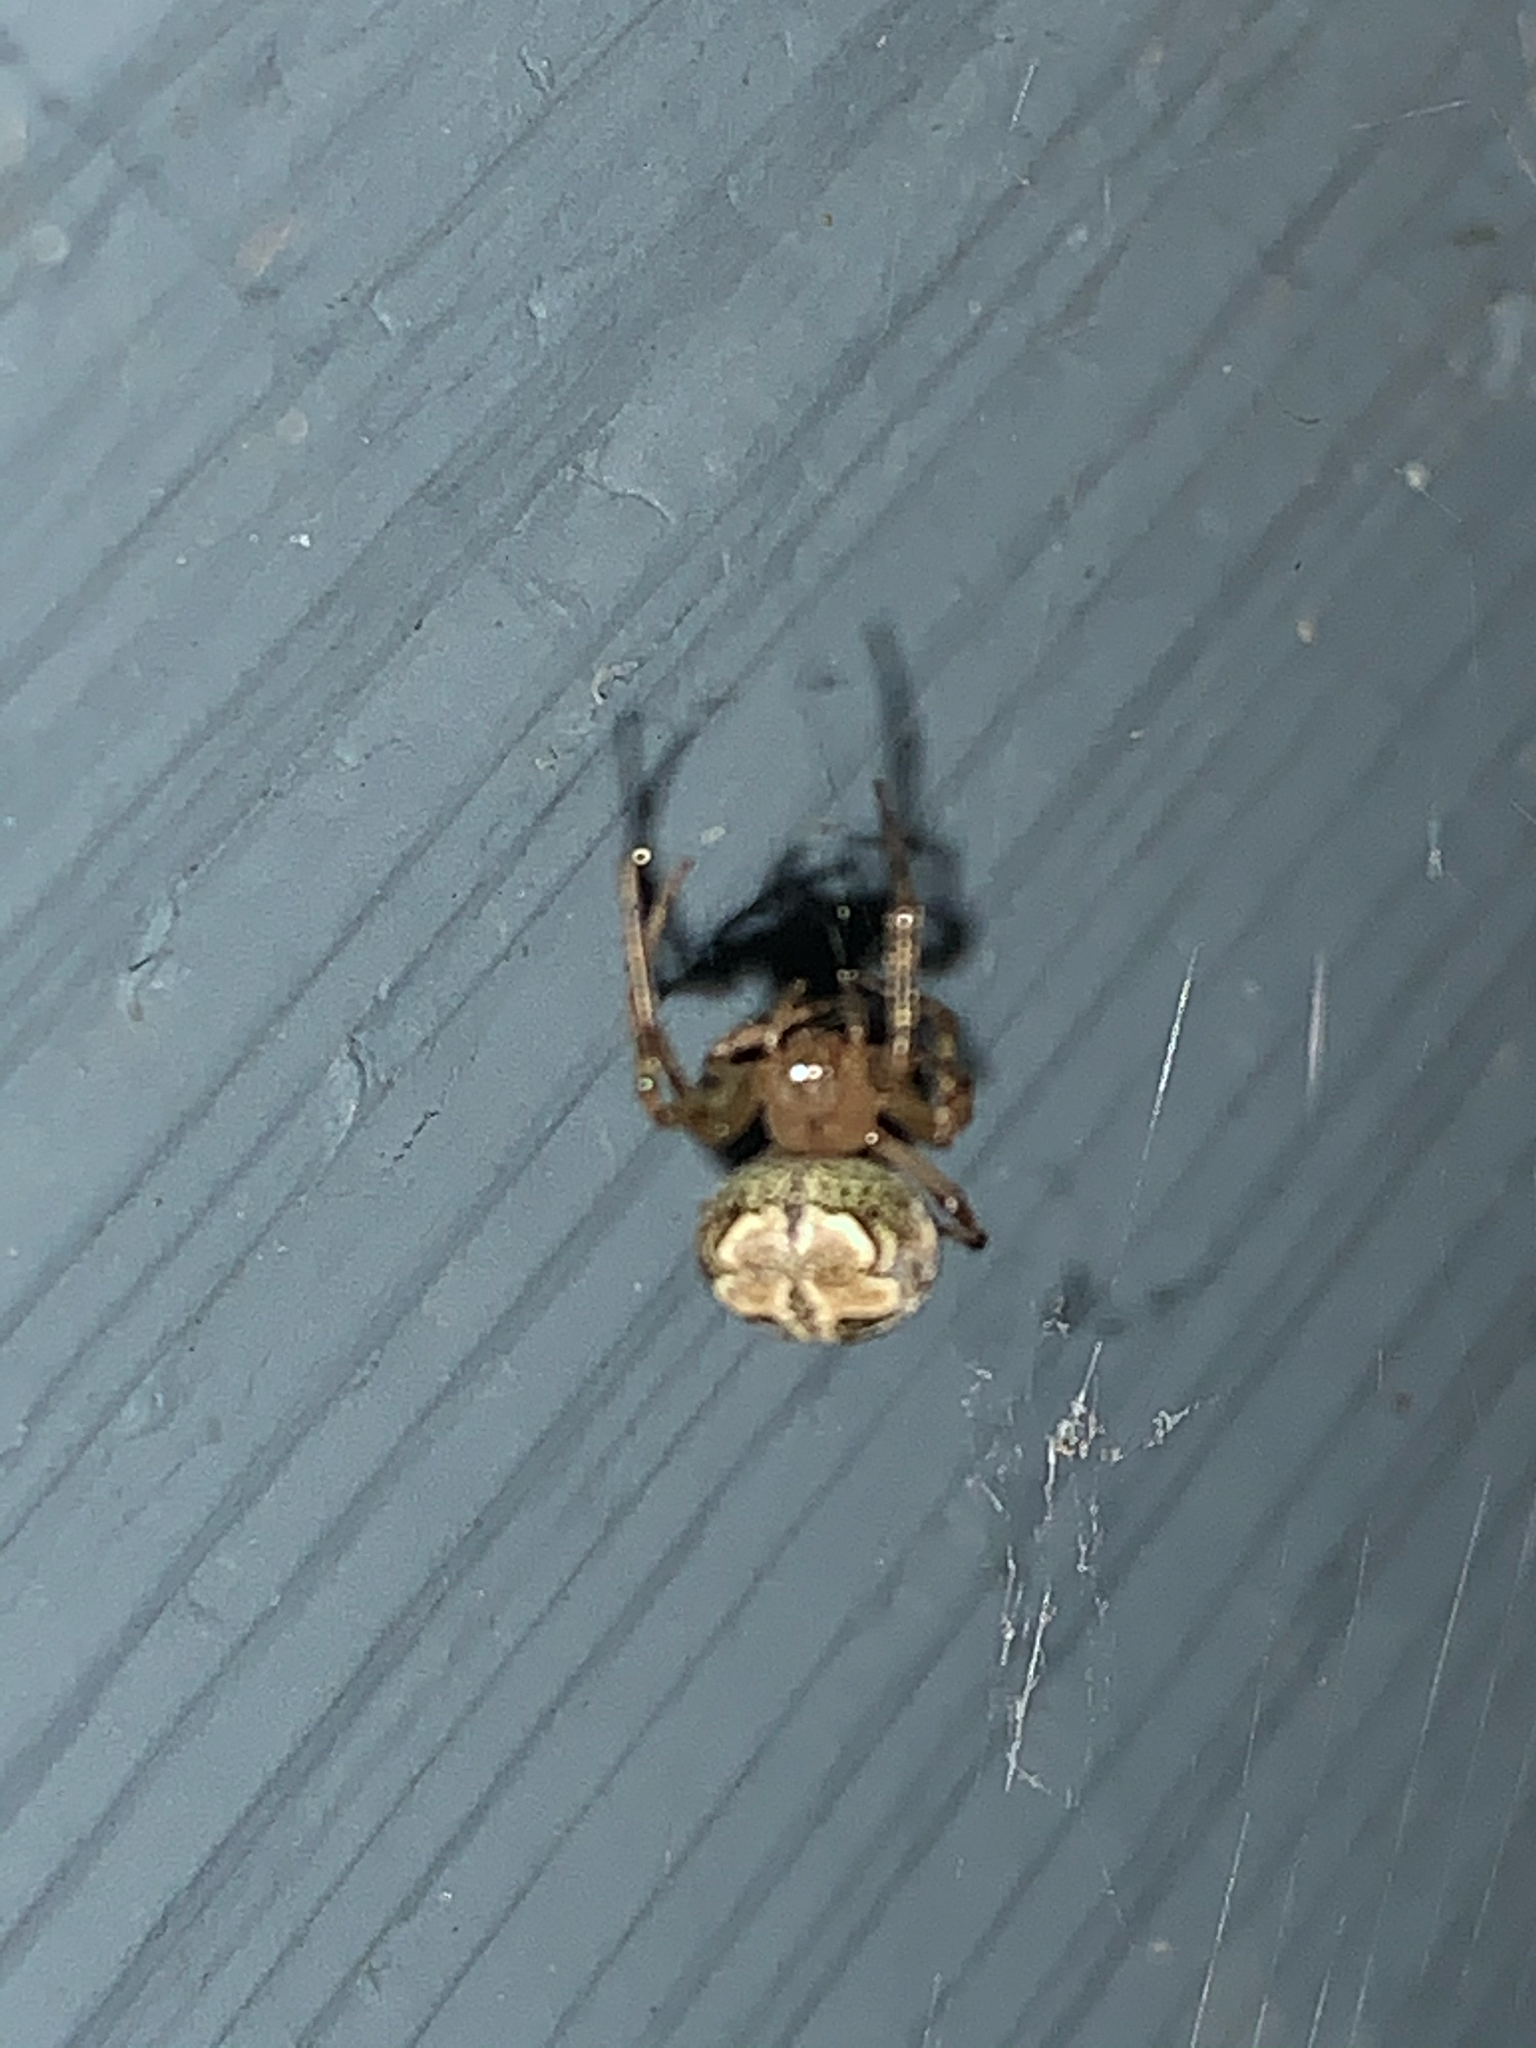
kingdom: Animalia
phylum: Arthropoda
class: Arachnida
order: Araneae
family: Araneidae
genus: Araneus
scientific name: Araneus pegnia
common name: Orb weavers
